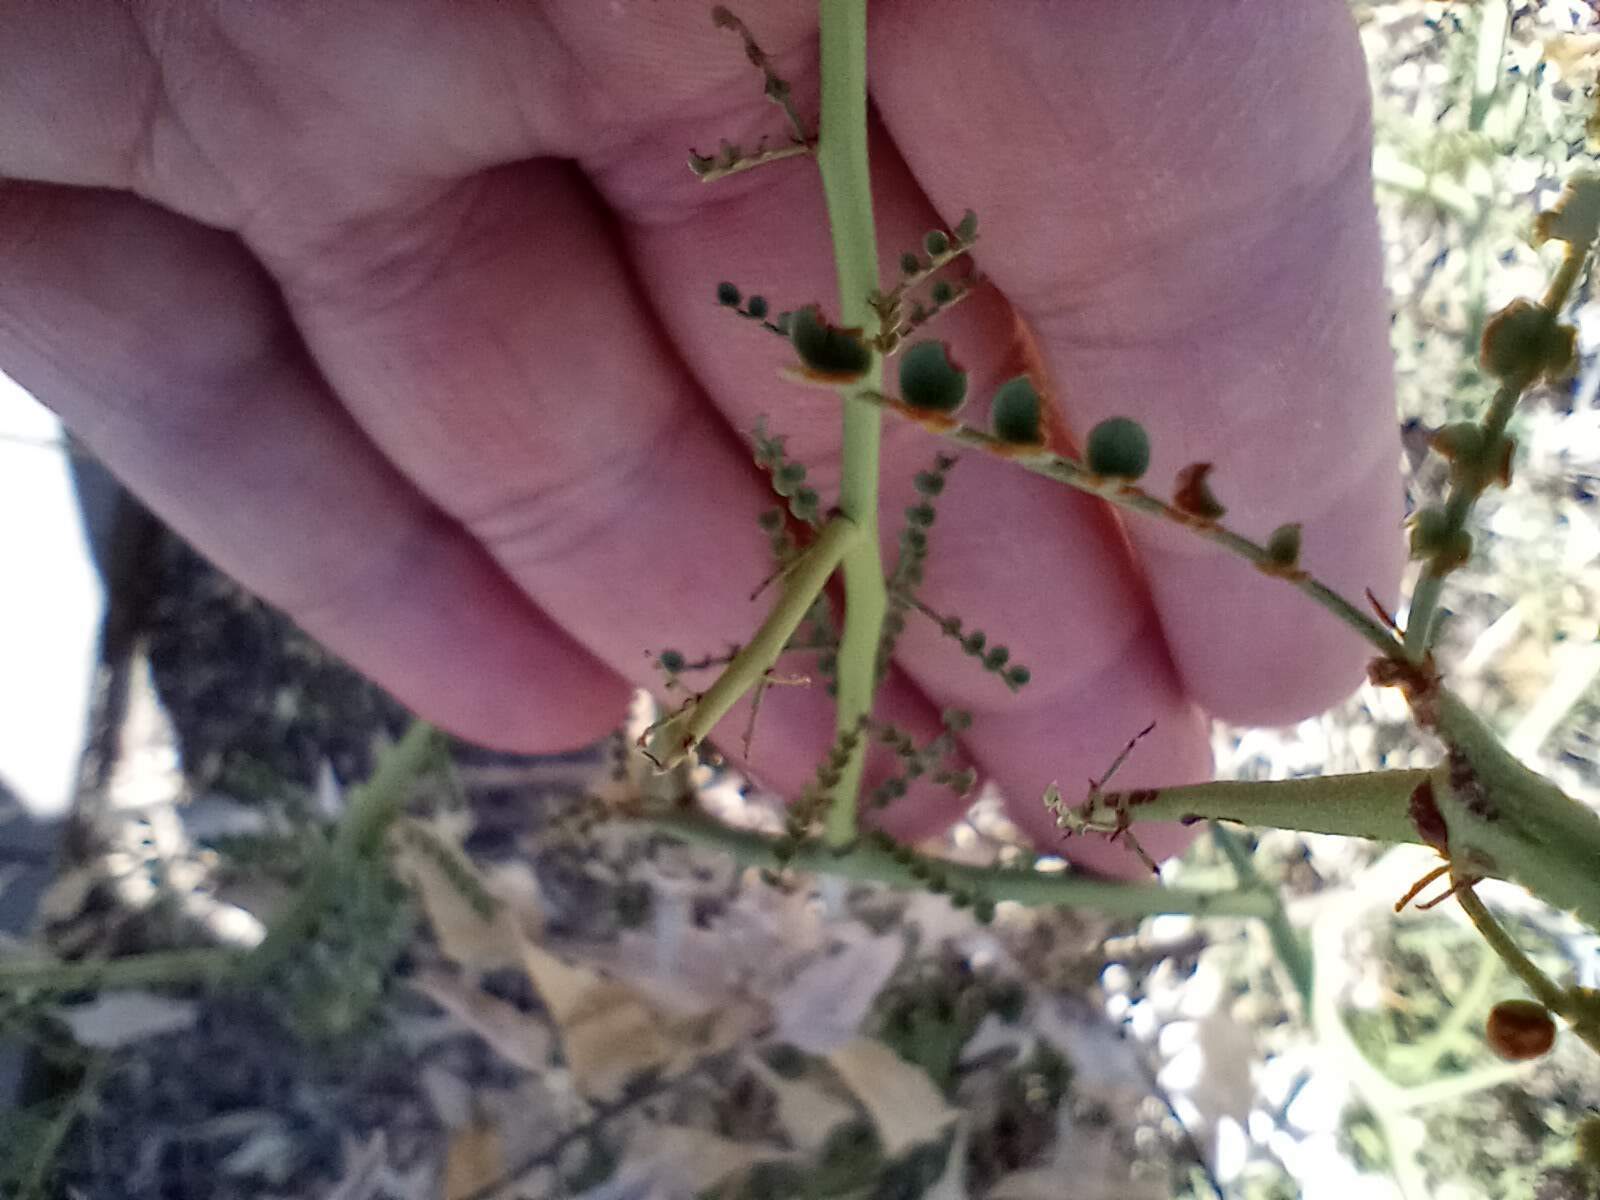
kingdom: Plantae
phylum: Tracheophyta
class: Magnoliopsida
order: Fabales
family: Fabaceae
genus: Parkinsonia
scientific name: Parkinsonia microphylla
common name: Yellow paloverde
